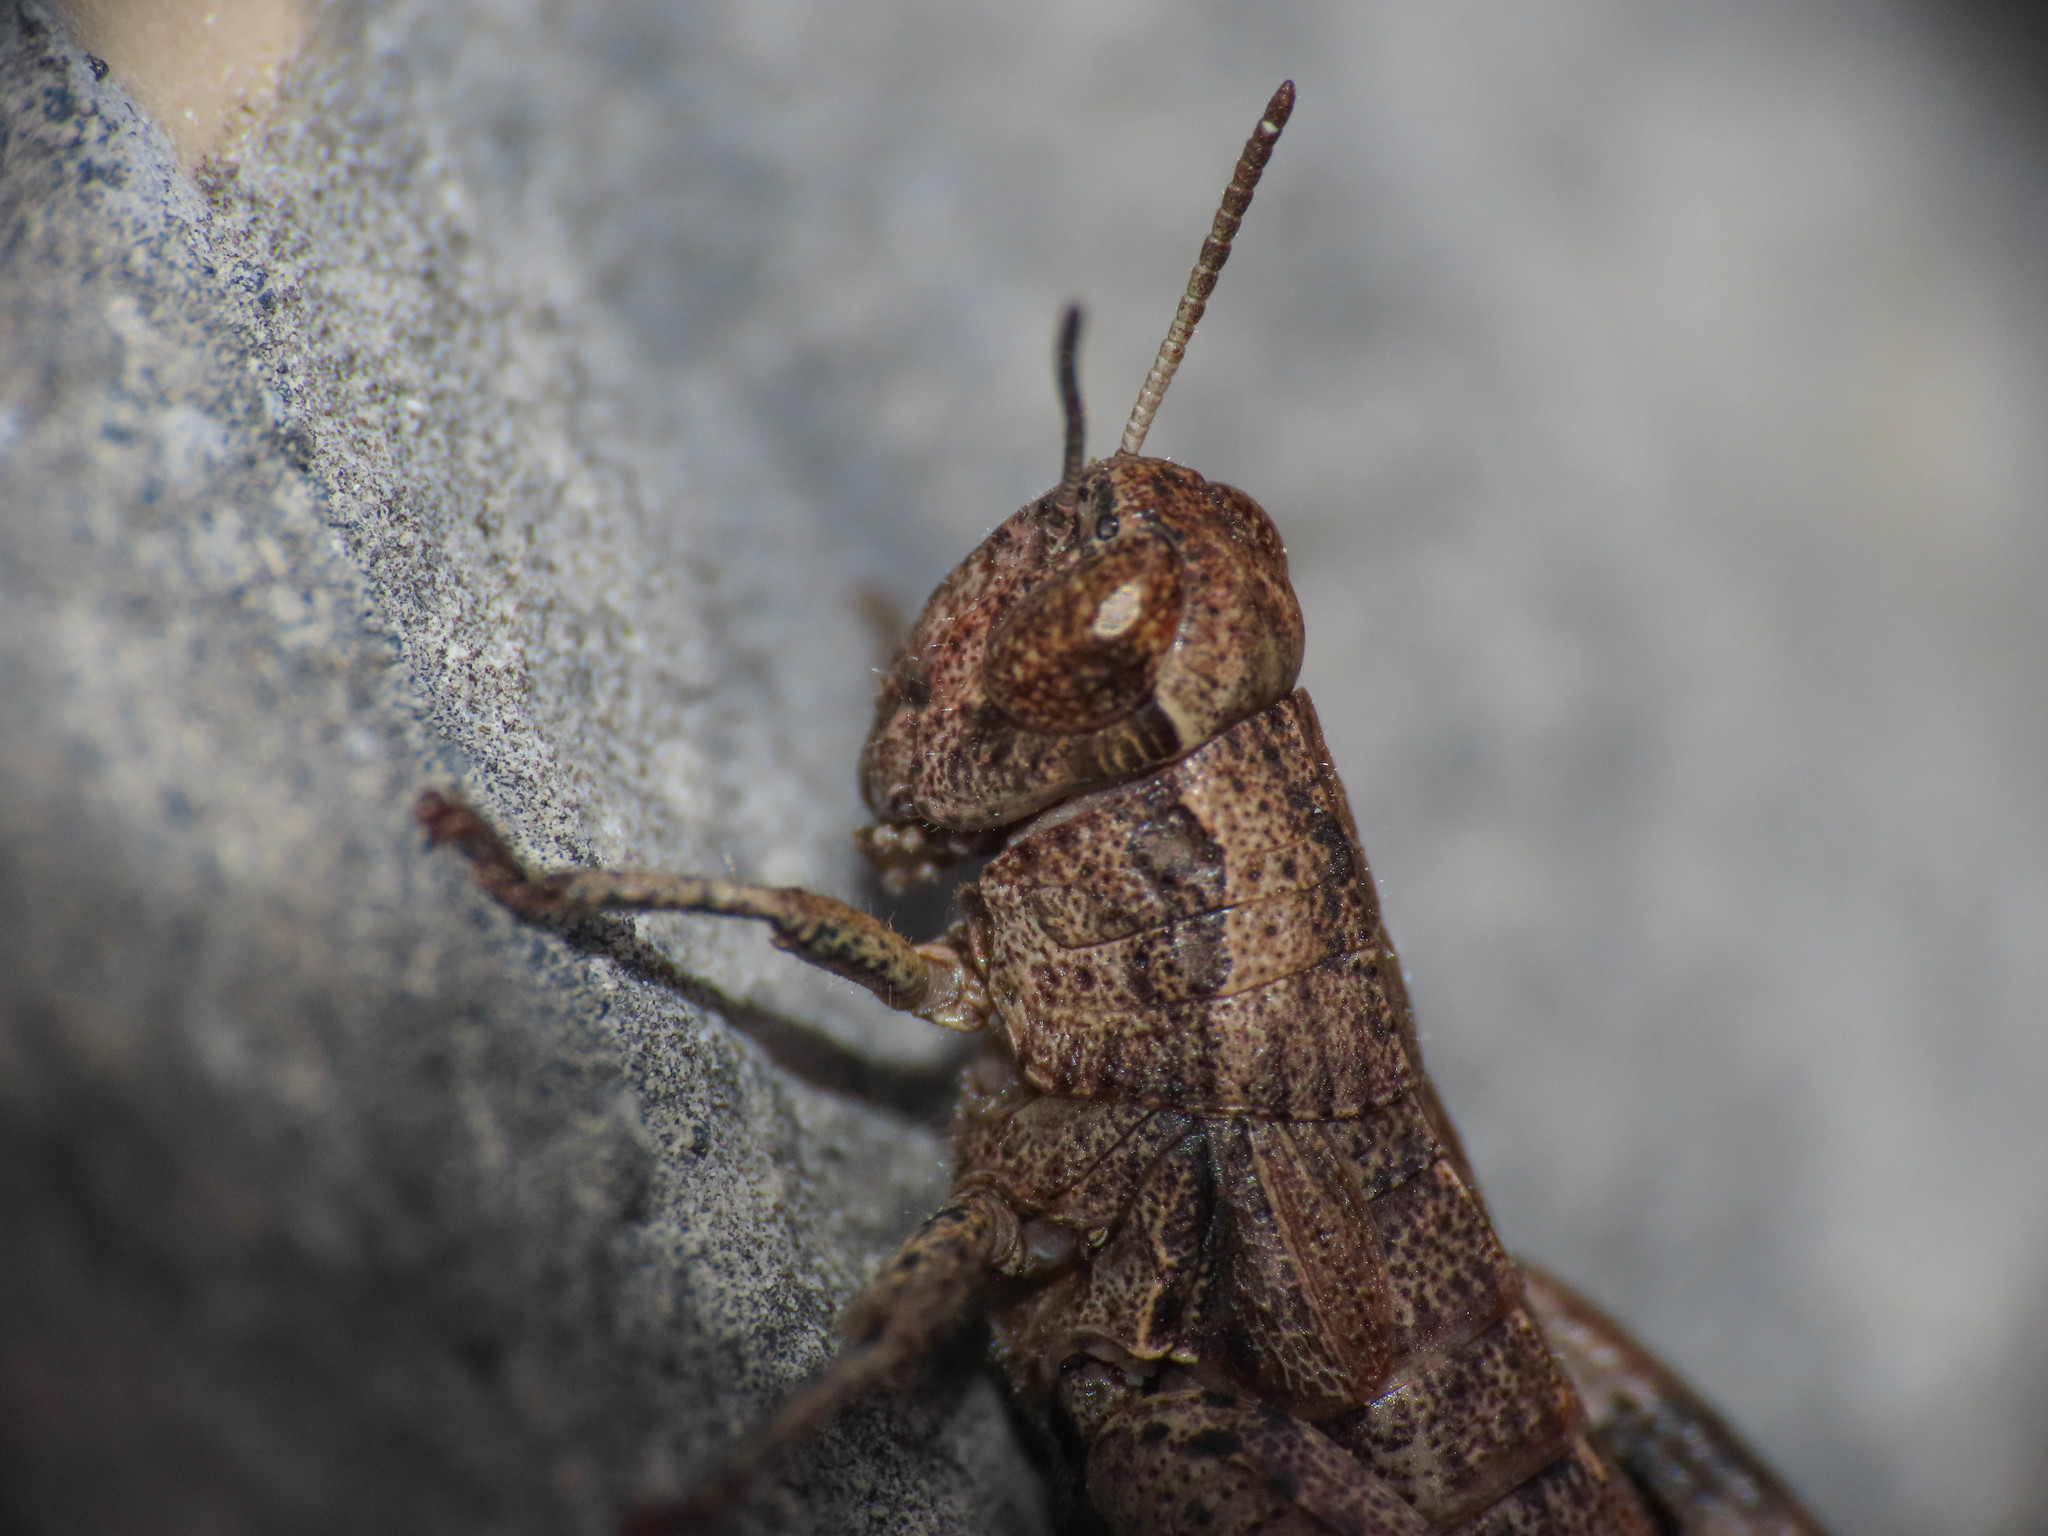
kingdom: Animalia
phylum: Arthropoda
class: Insecta
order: Orthoptera
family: Acrididae
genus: Pezotettix
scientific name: Pezotettix giornae
